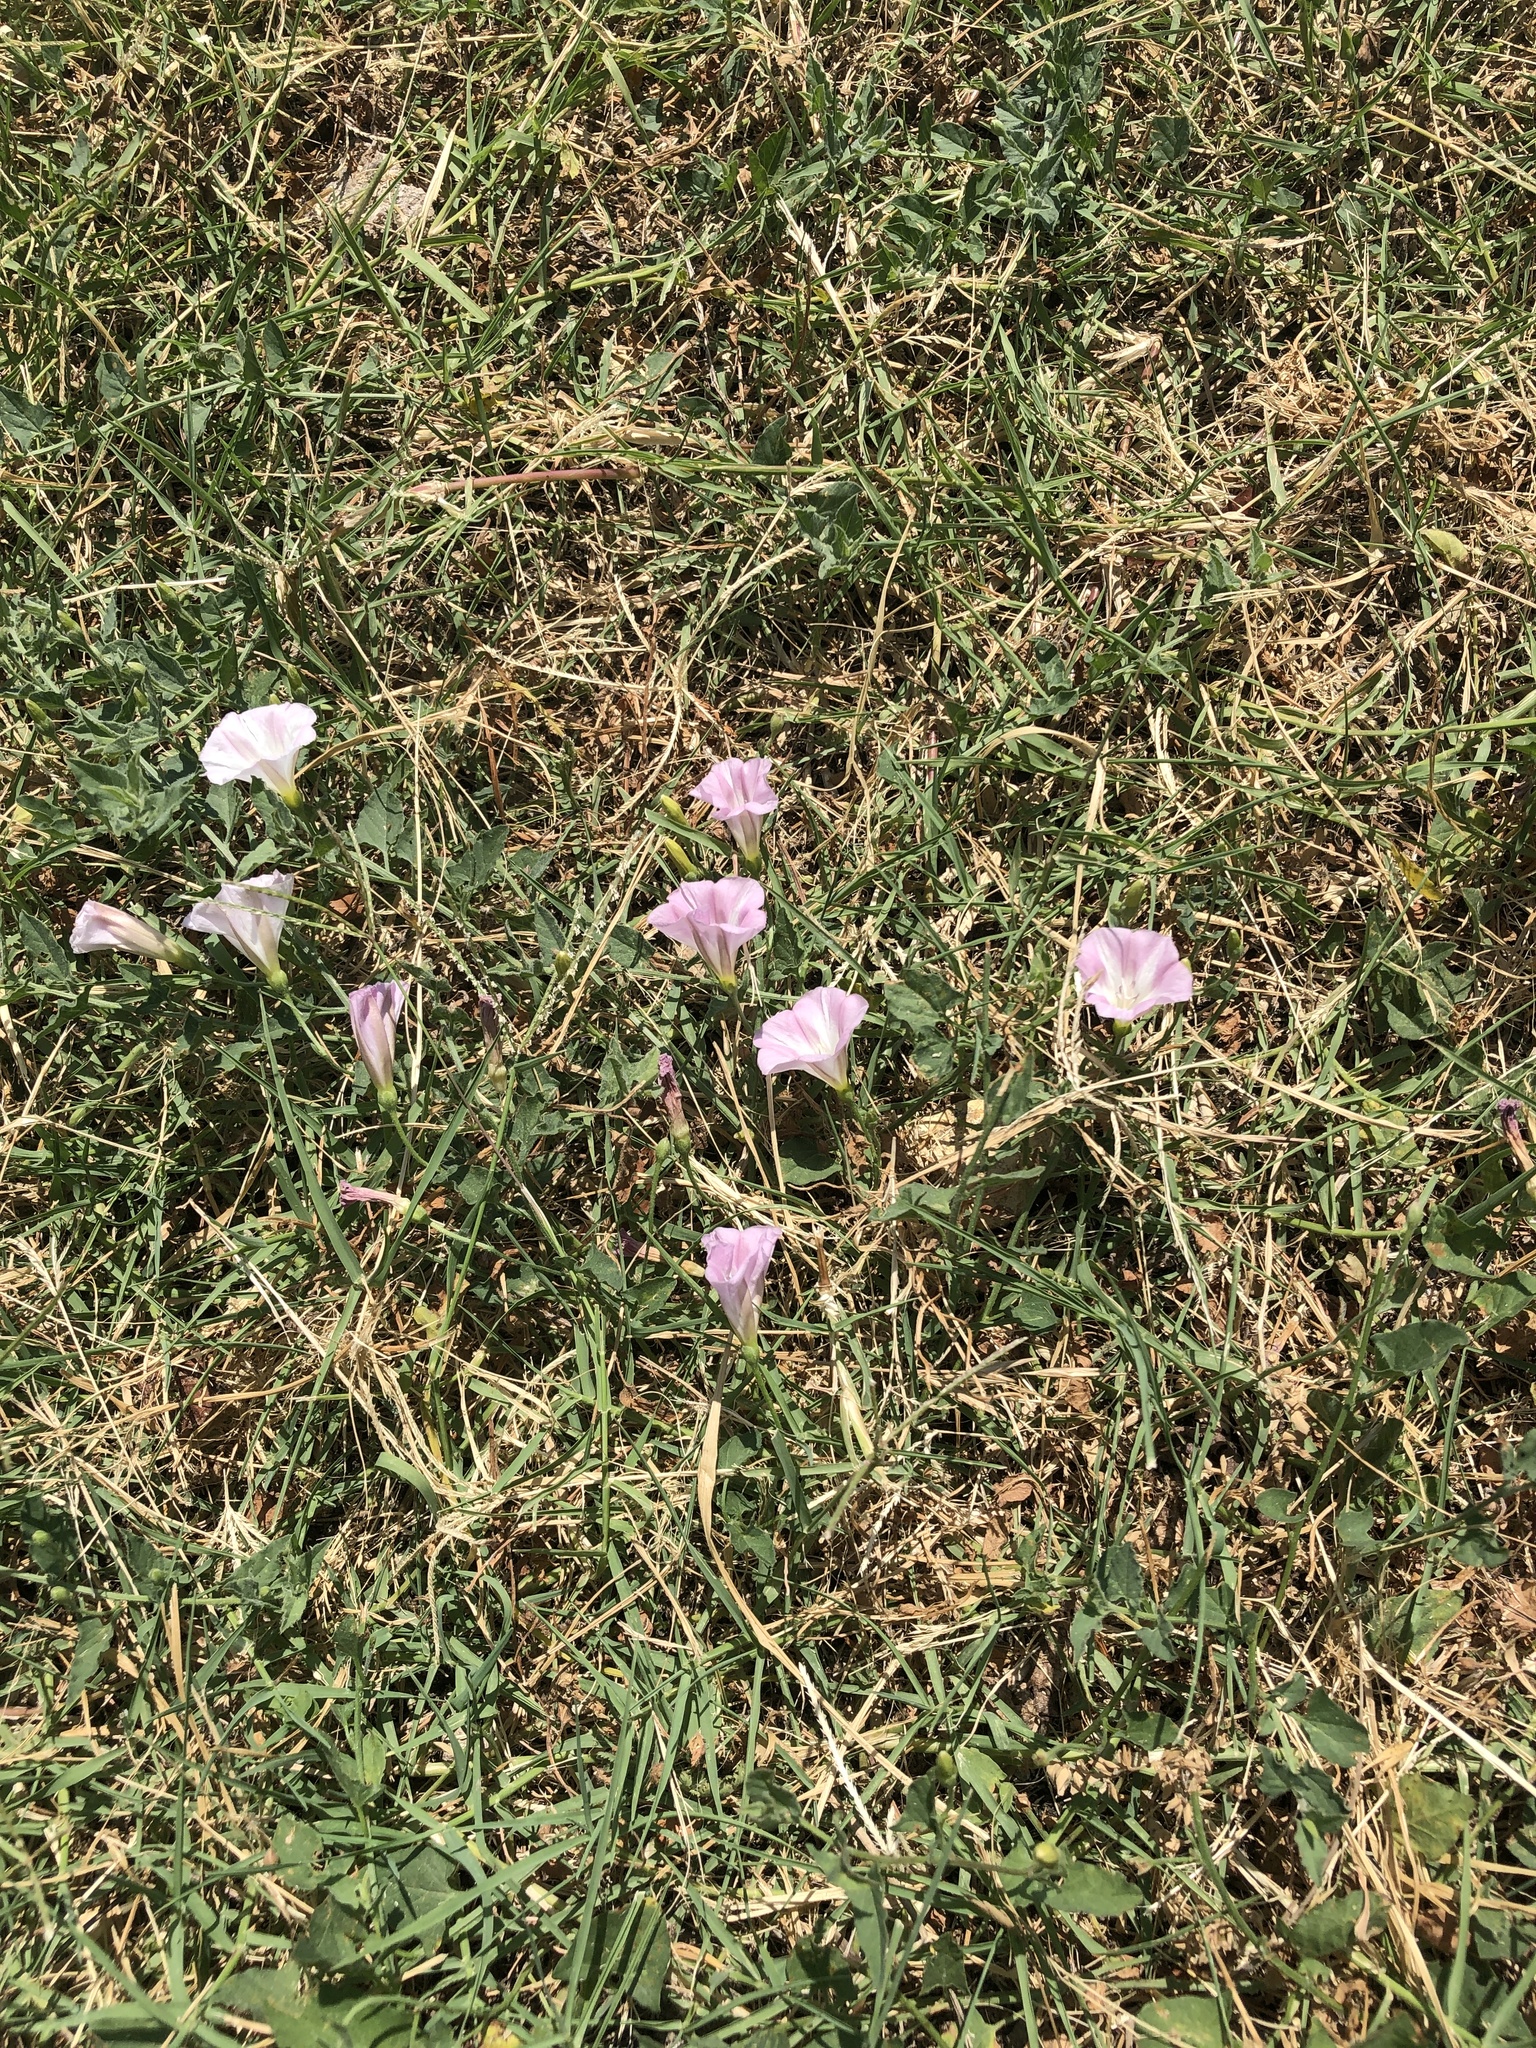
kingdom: Plantae
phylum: Tracheophyta
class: Magnoliopsida
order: Solanales
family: Convolvulaceae
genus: Convolvulus
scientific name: Convolvulus arvensis
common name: Field bindweed
